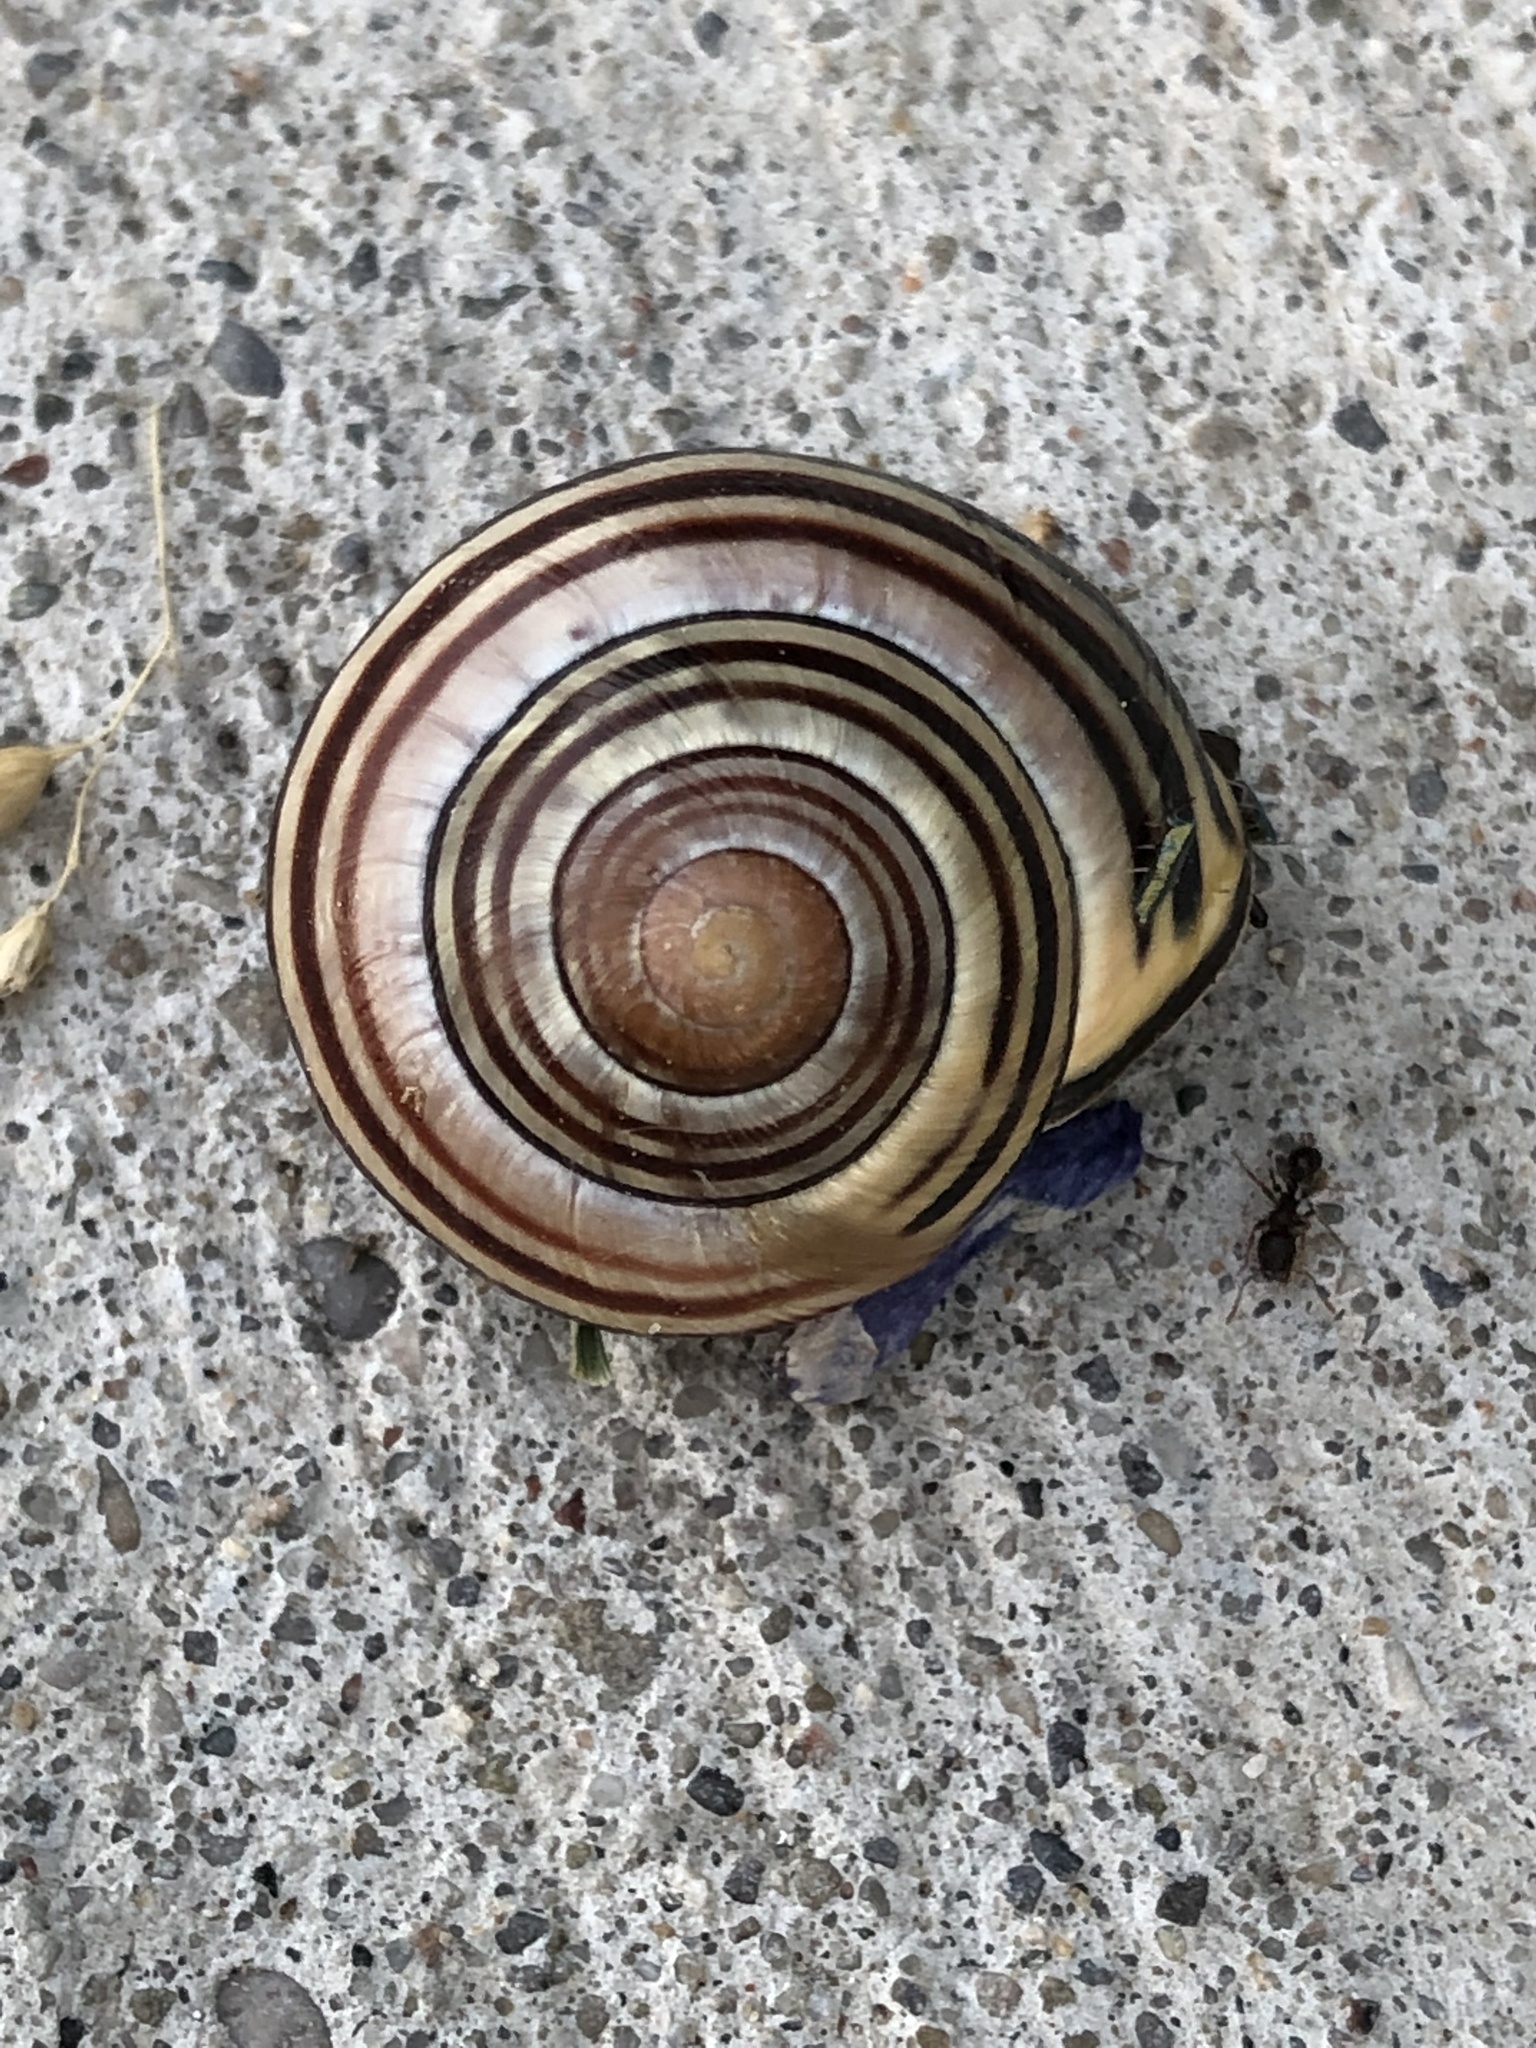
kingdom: Animalia
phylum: Mollusca
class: Gastropoda
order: Stylommatophora
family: Helicidae
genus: Cepaea
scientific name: Cepaea nemoralis
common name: Grovesnail
